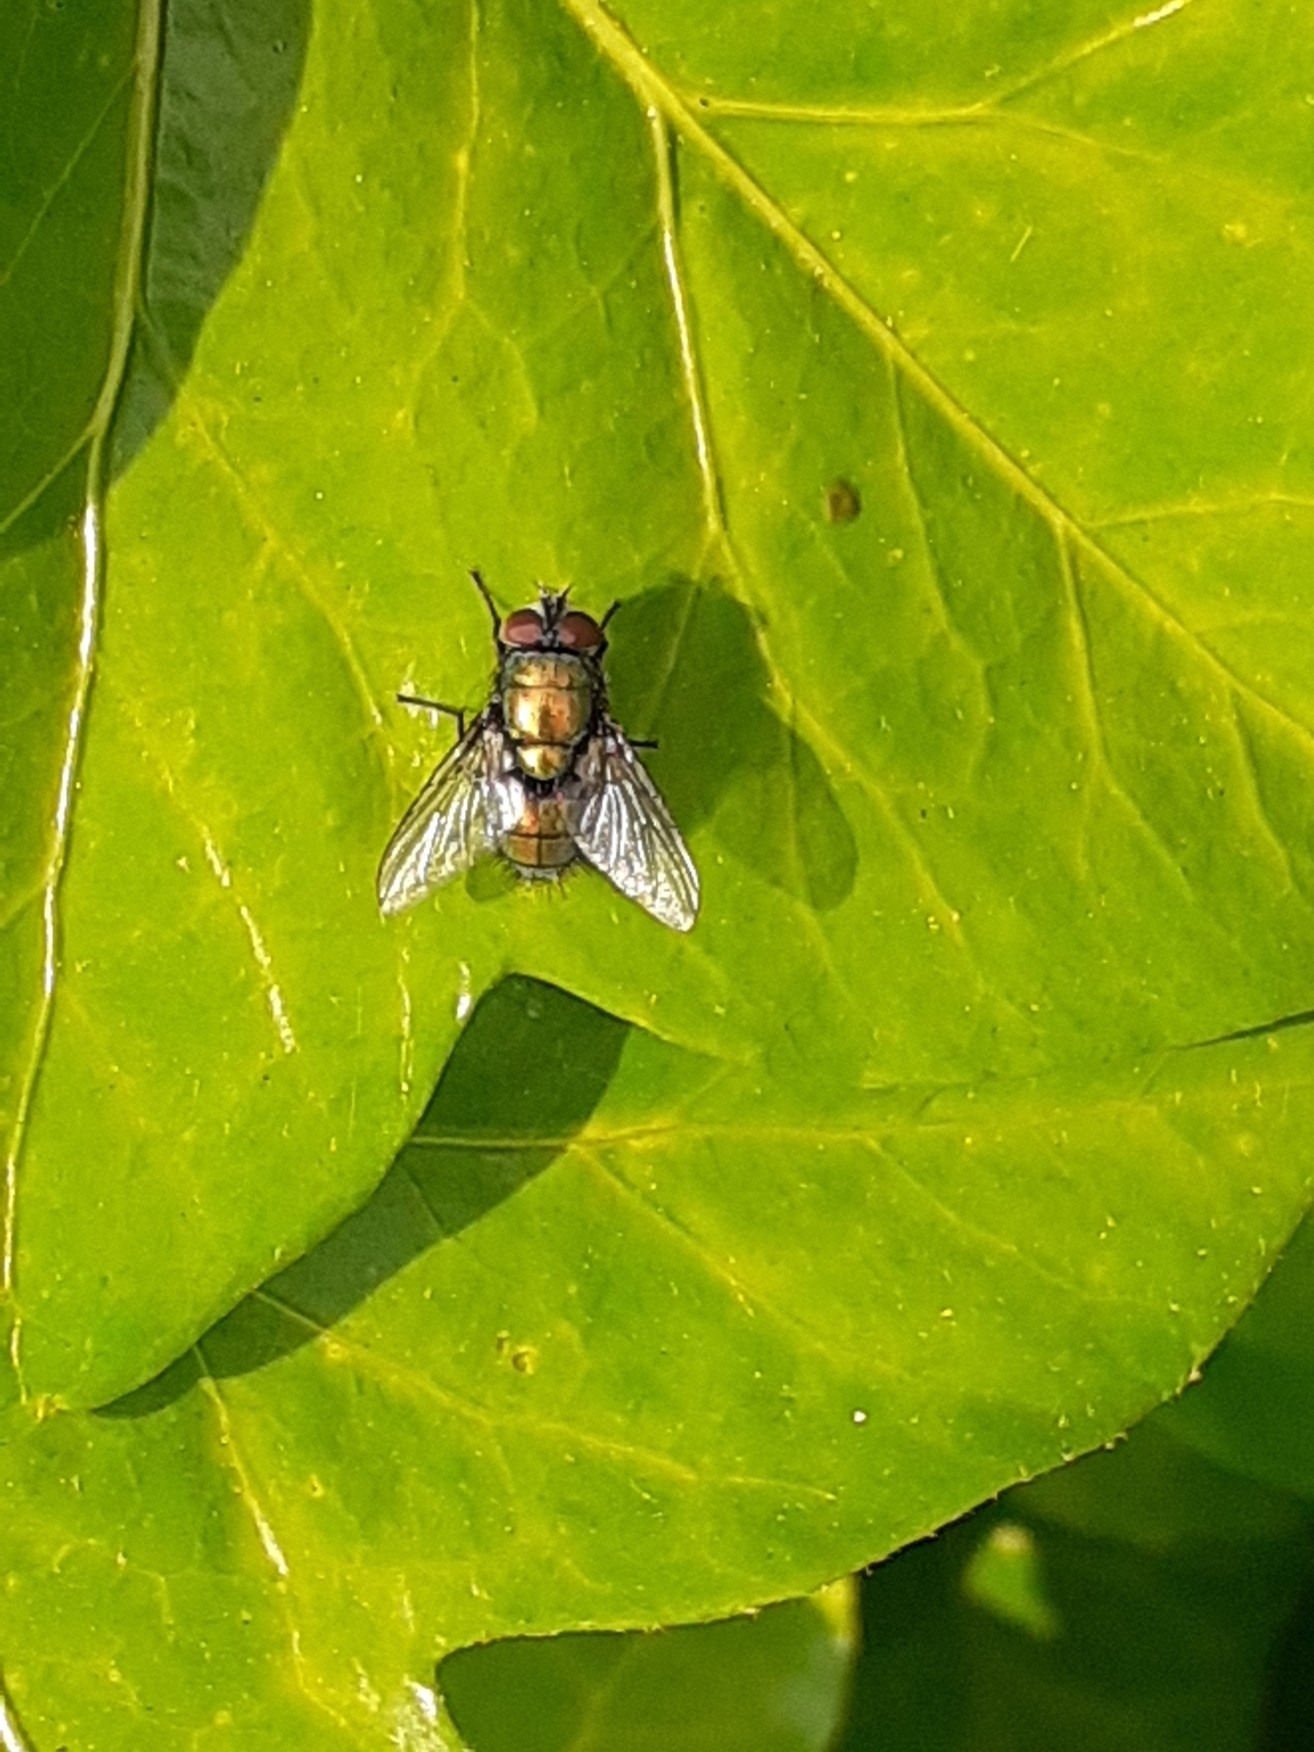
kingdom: Animalia
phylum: Arthropoda
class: Insecta
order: Diptera
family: Calliphoridae
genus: Lucilia
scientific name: Lucilia
